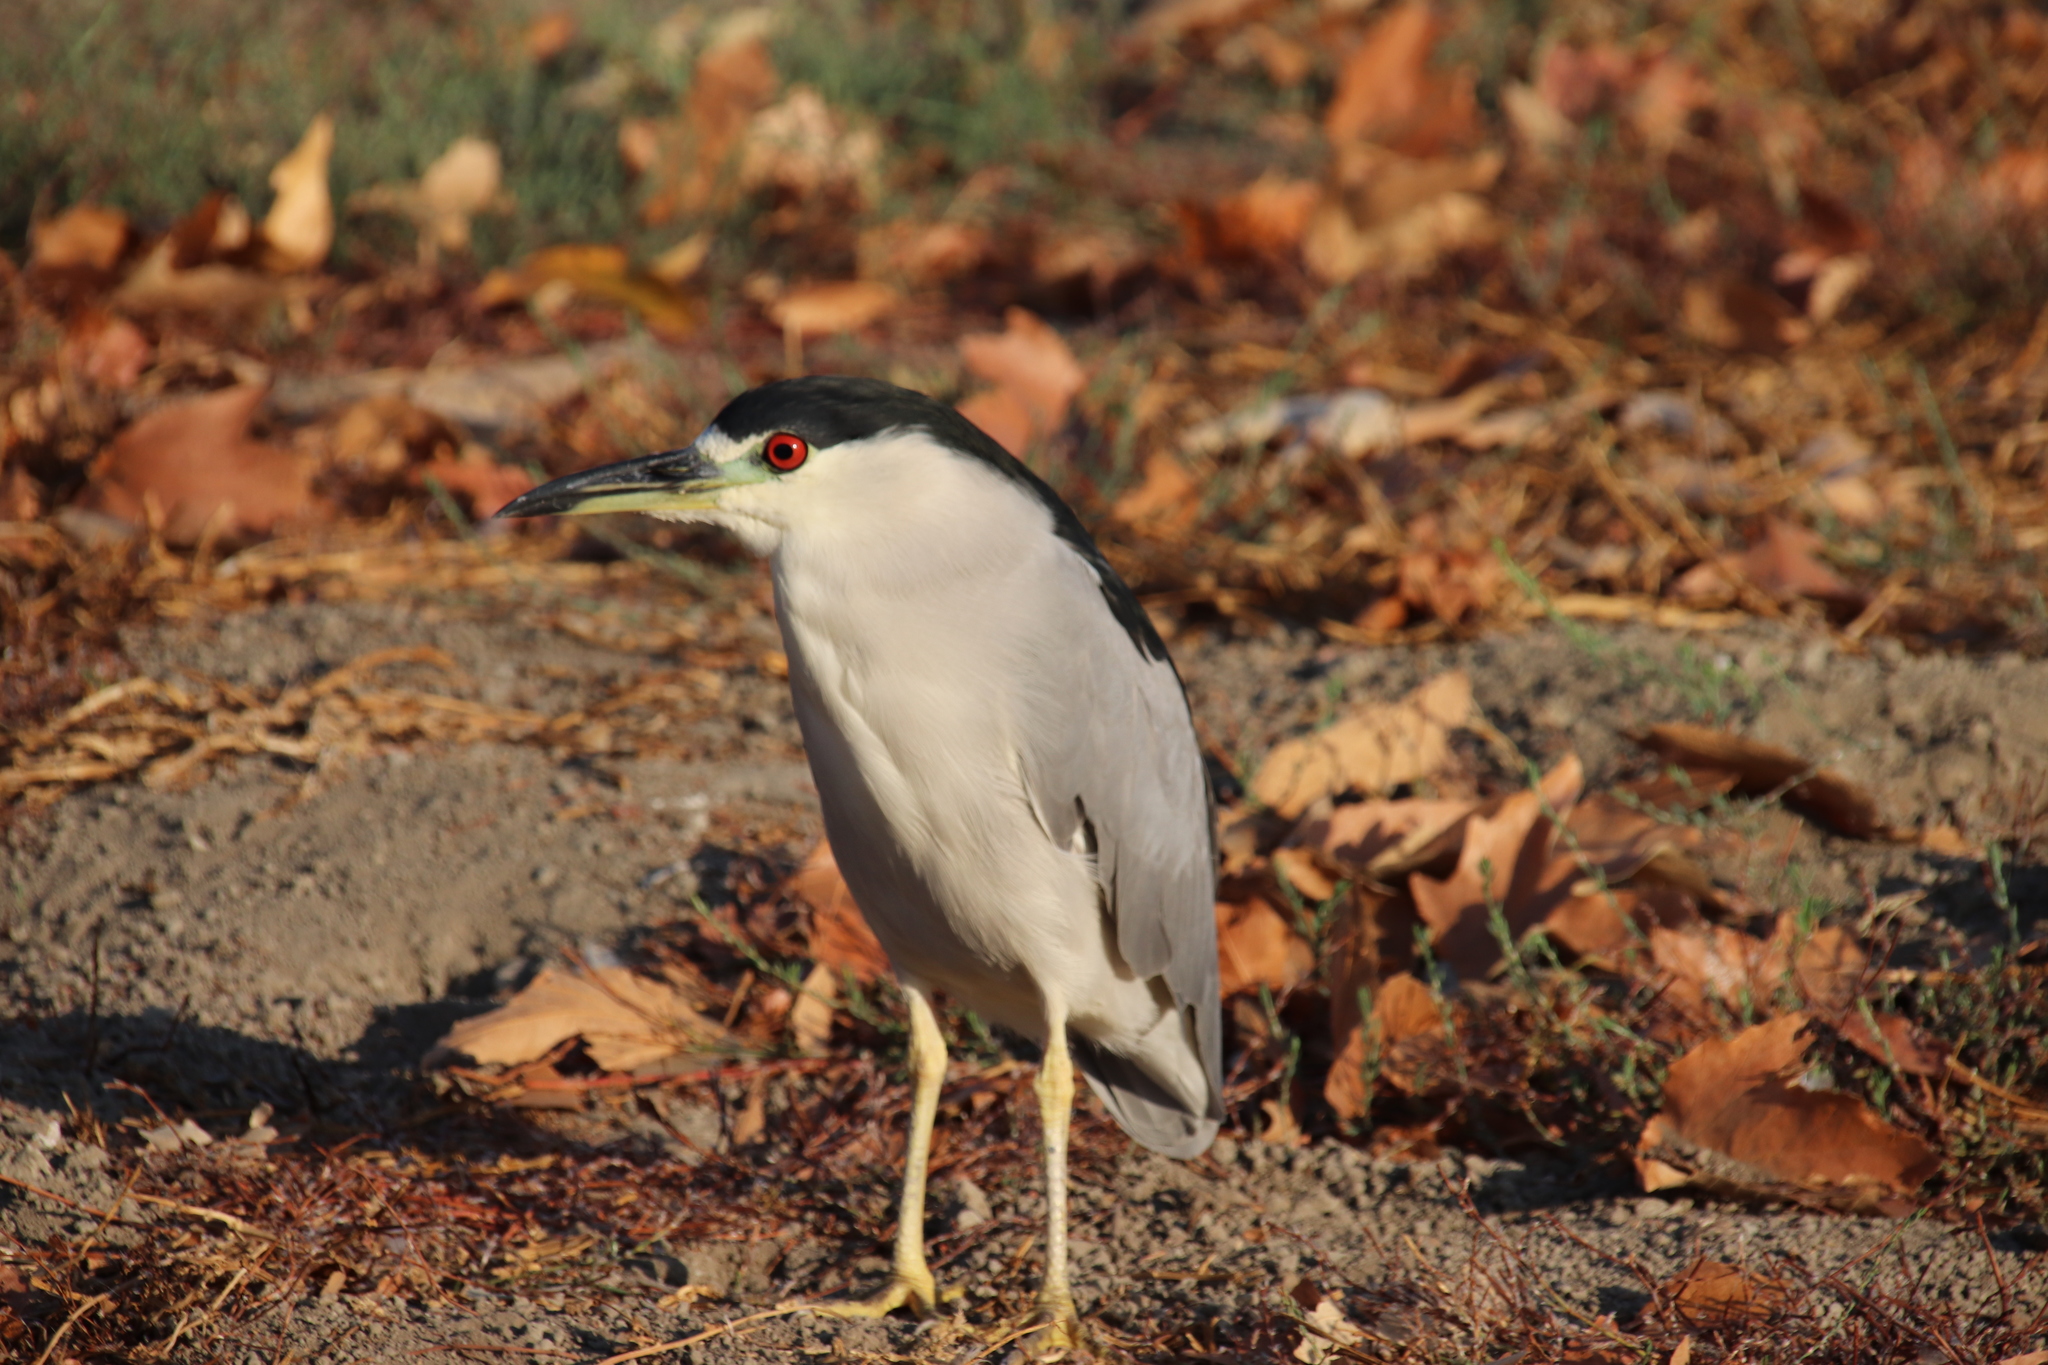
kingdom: Animalia
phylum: Chordata
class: Aves
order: Pelecaniformes
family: Ardeidae
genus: Nycticorax
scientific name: Nycticorax nycticorax
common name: Black-crowned night heron
